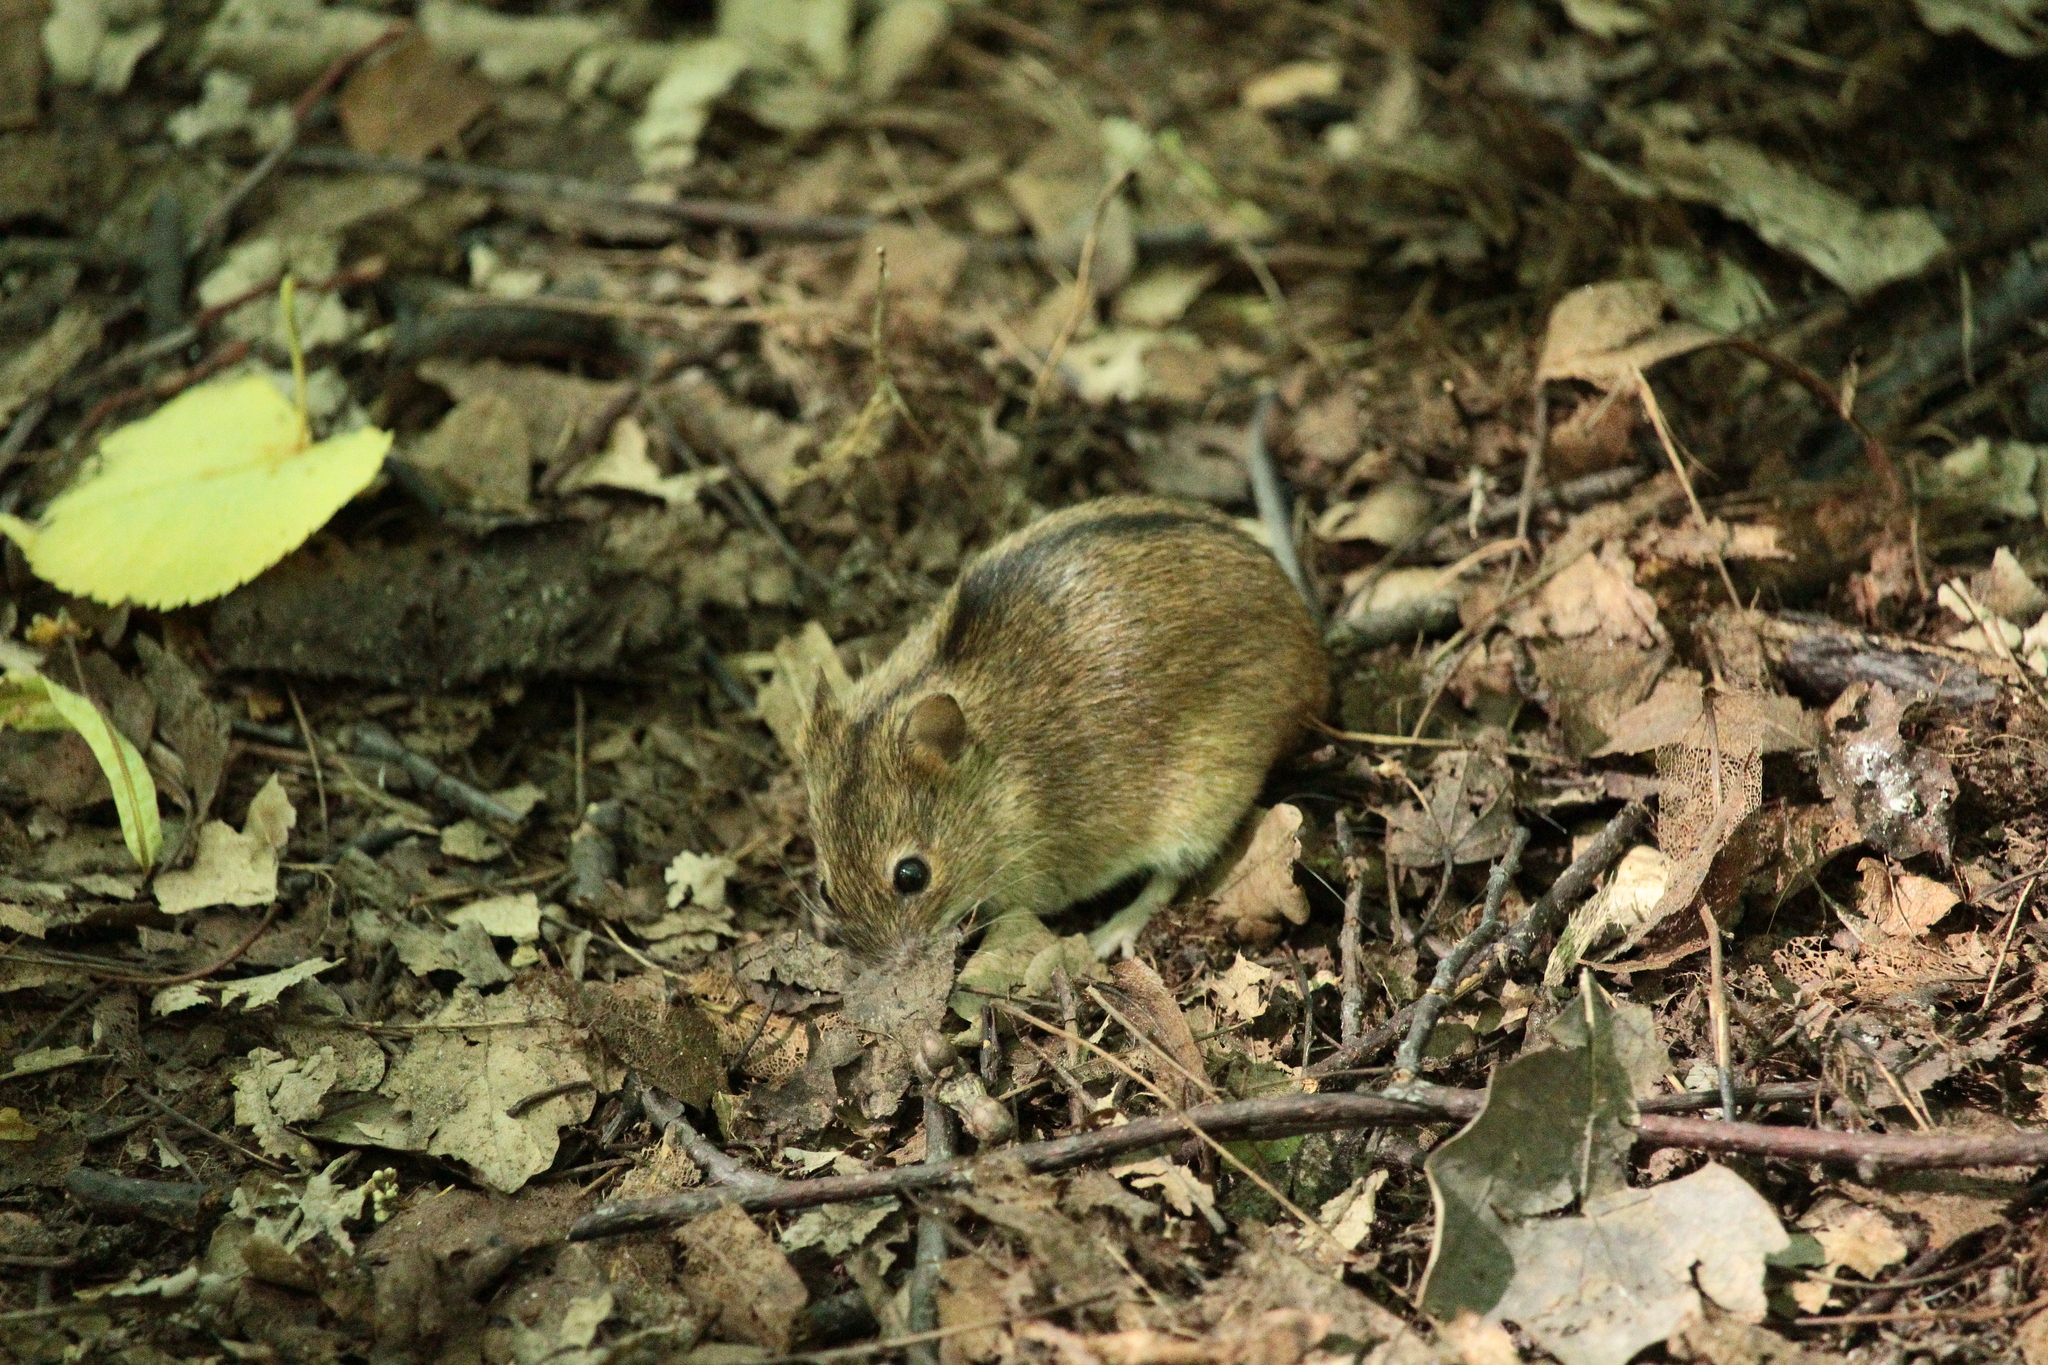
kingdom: Animalia
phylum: Chordata
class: Mammalia
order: Rodentia
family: Muridae
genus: Apodemus
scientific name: Apodemus agrarius
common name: Striped field mouse
